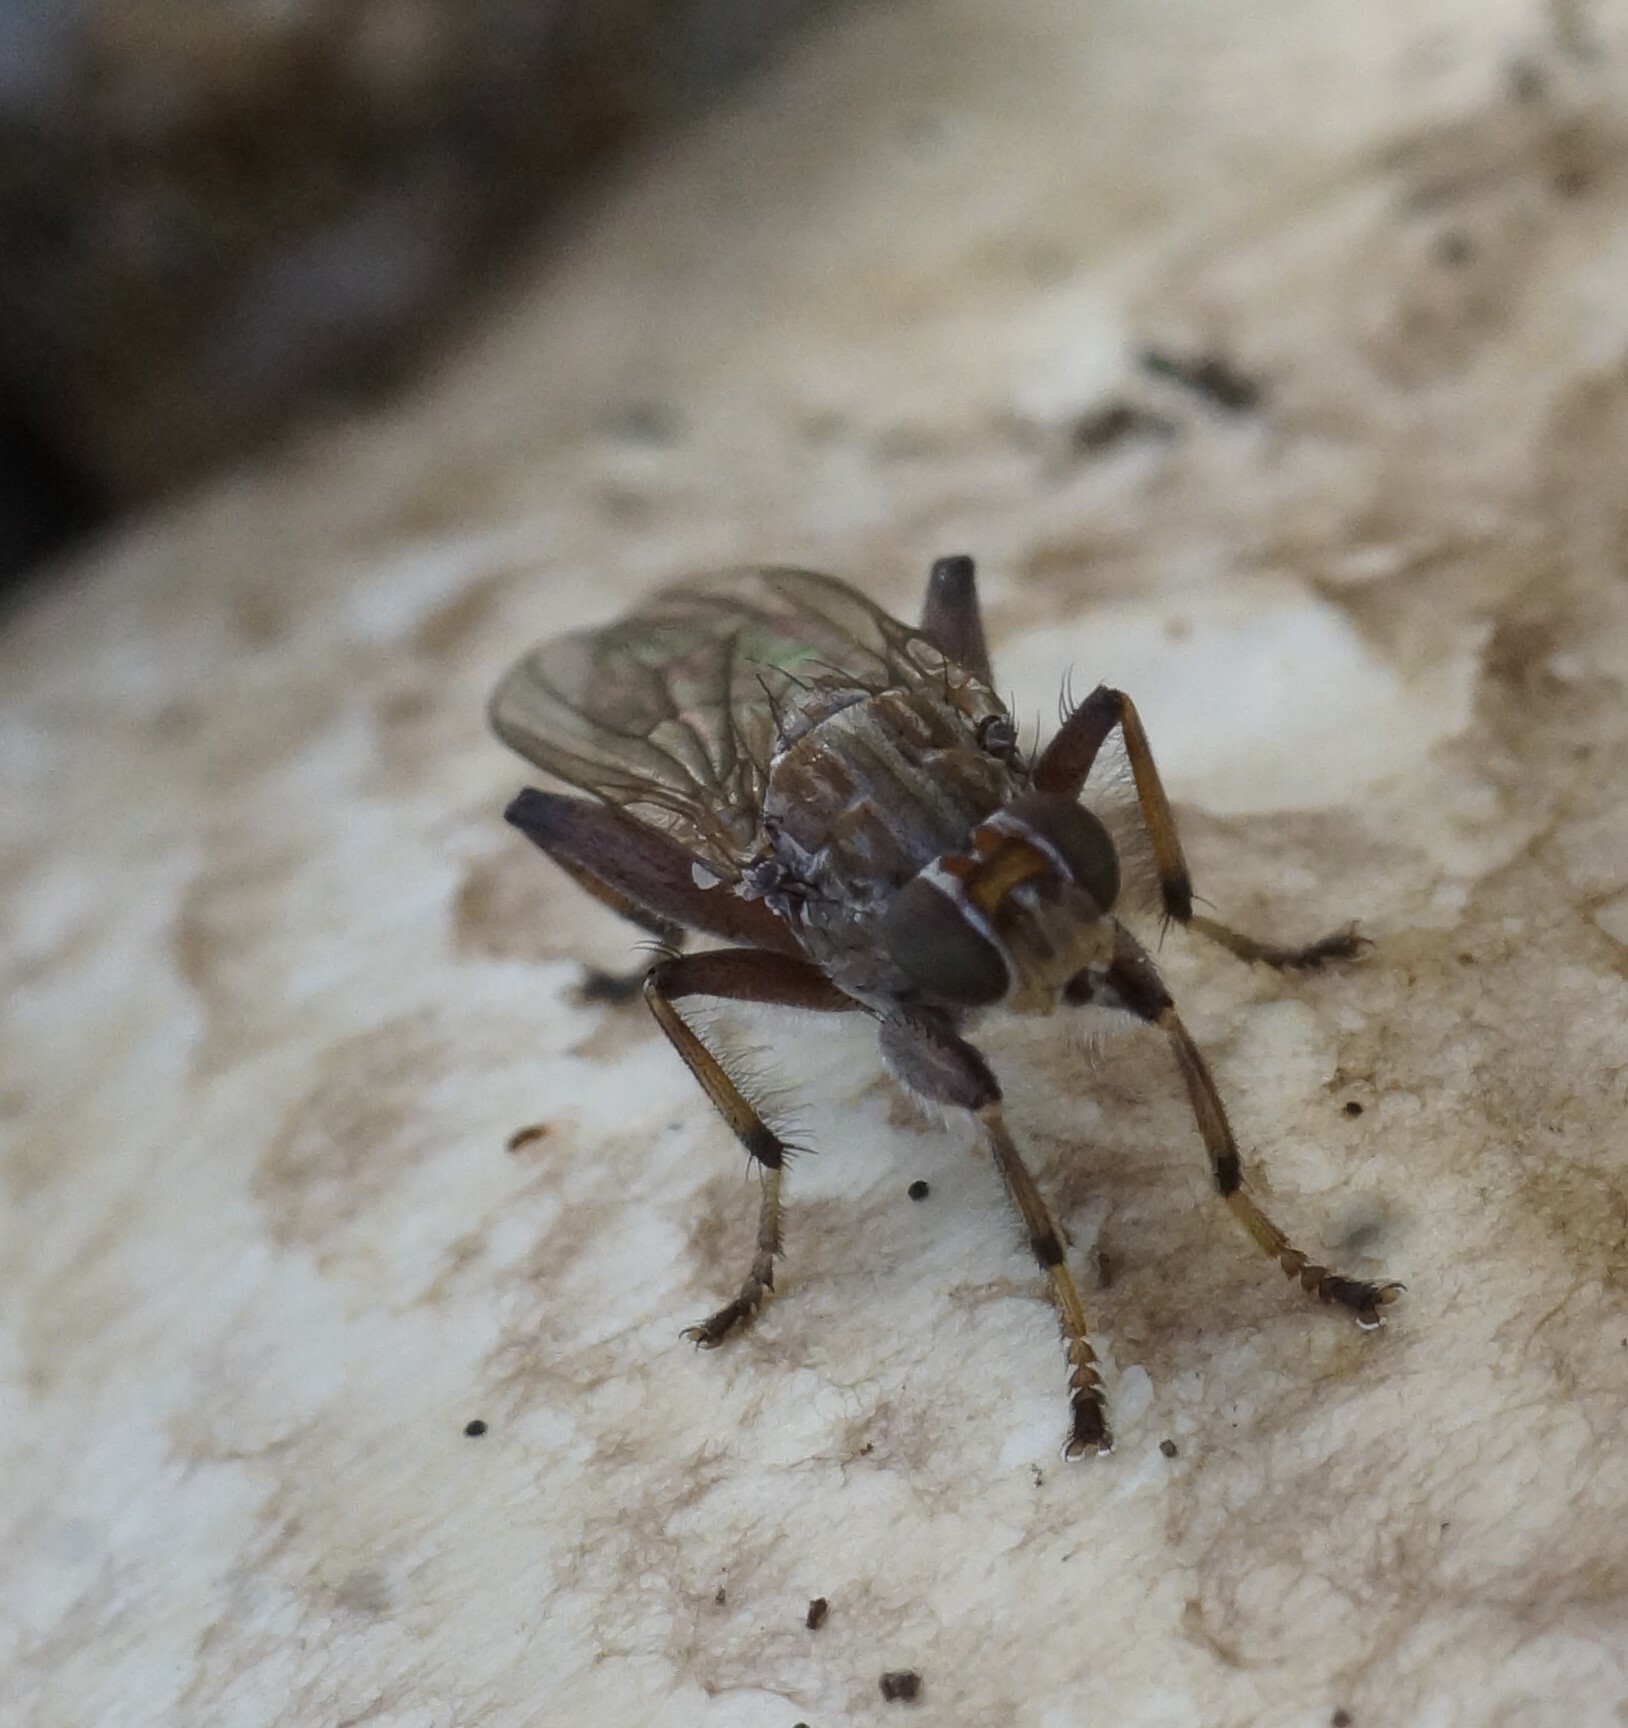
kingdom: Animalia
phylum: Arthropoda
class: Insecta
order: Diptera
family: Heleomyzidae
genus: Tapeigaster
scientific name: Tapeigaster nigricornis
